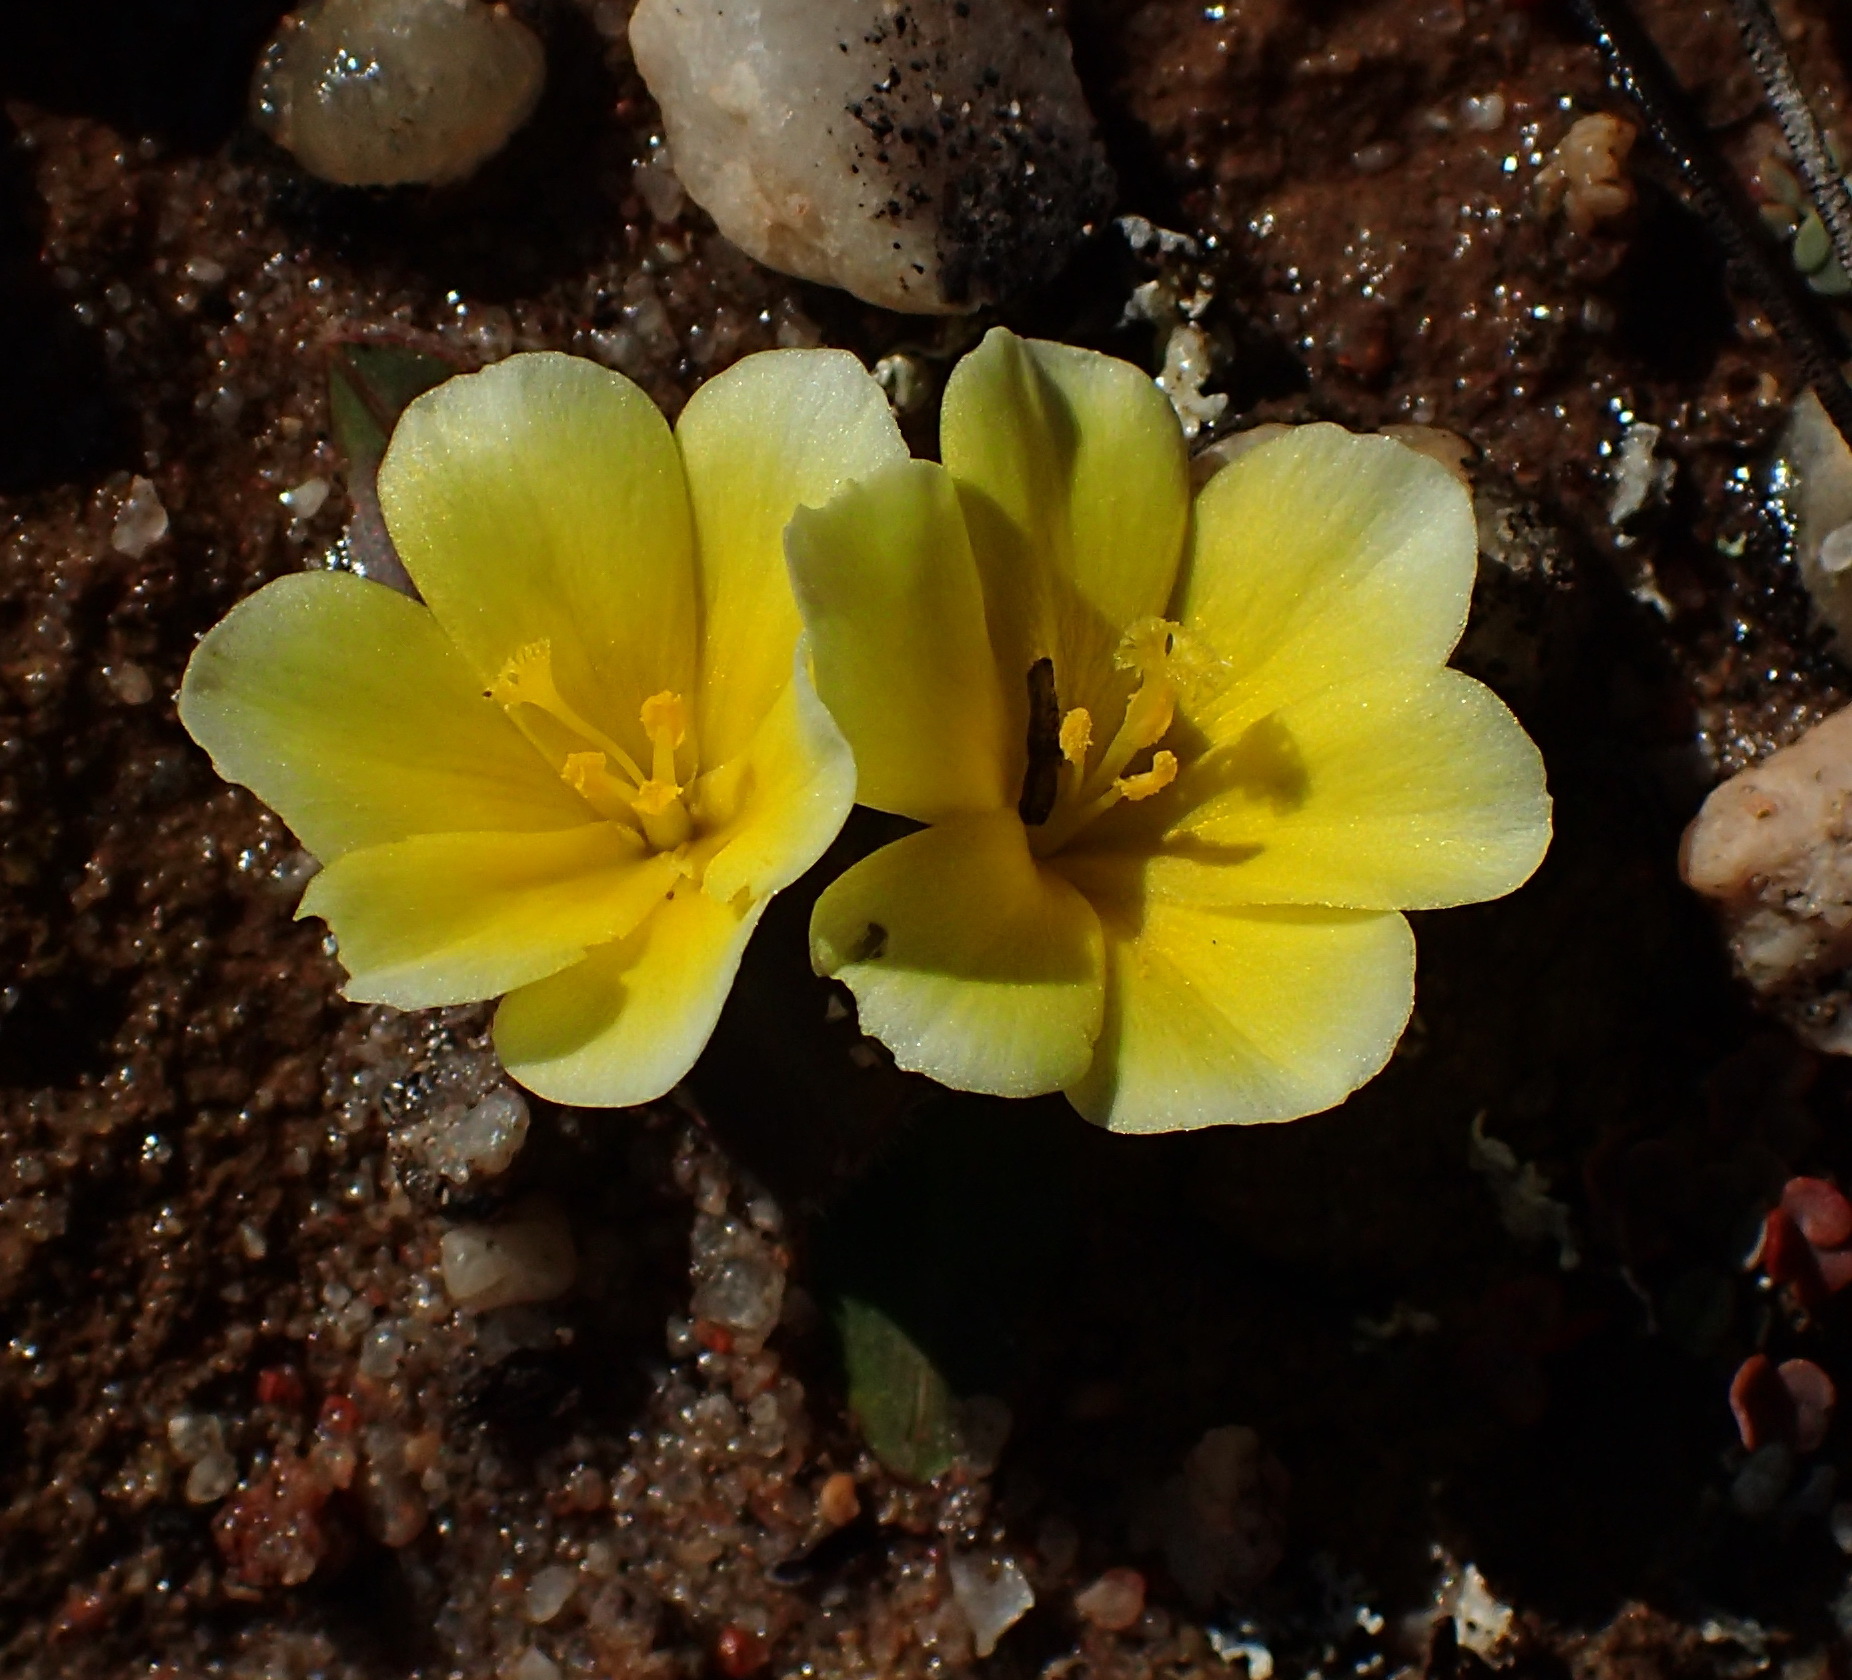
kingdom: Plantae
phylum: Tracheophyta
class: Liliopsida
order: Asparagales
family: Iridaceae
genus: Moraea
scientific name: Moraea luteoalba
